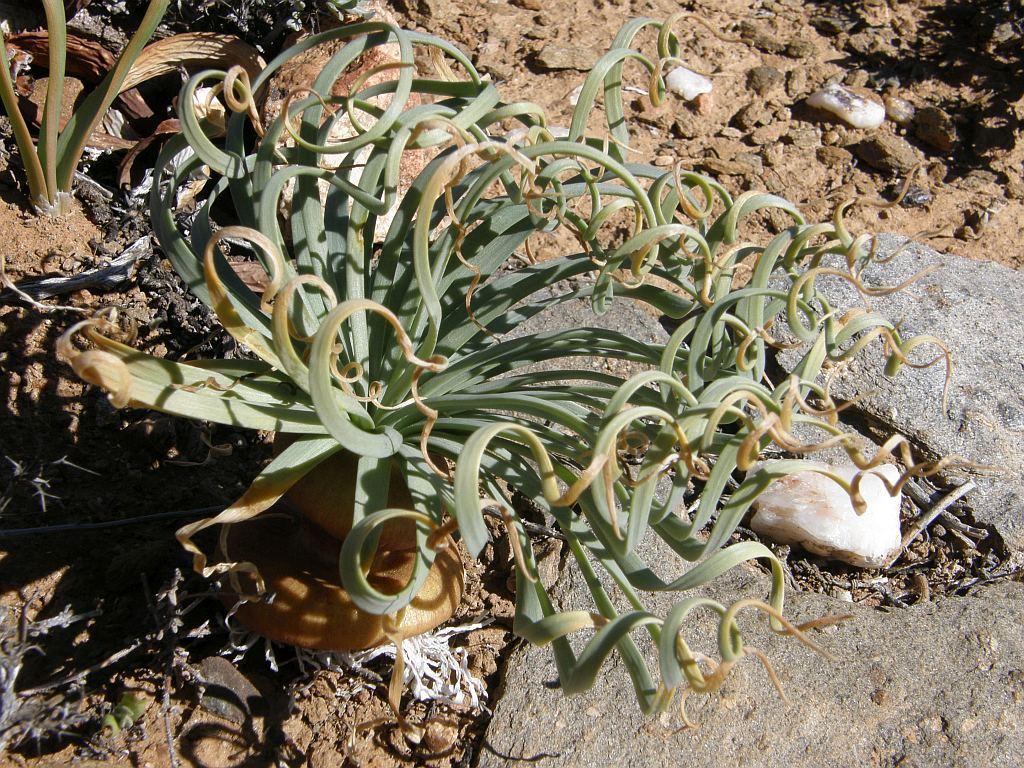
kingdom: Plantae
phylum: Tracheophyta
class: Liliopsida
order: Asparagales
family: Amaryllidaceae
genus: Gethyllis
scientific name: Gethyllis namaquensis
